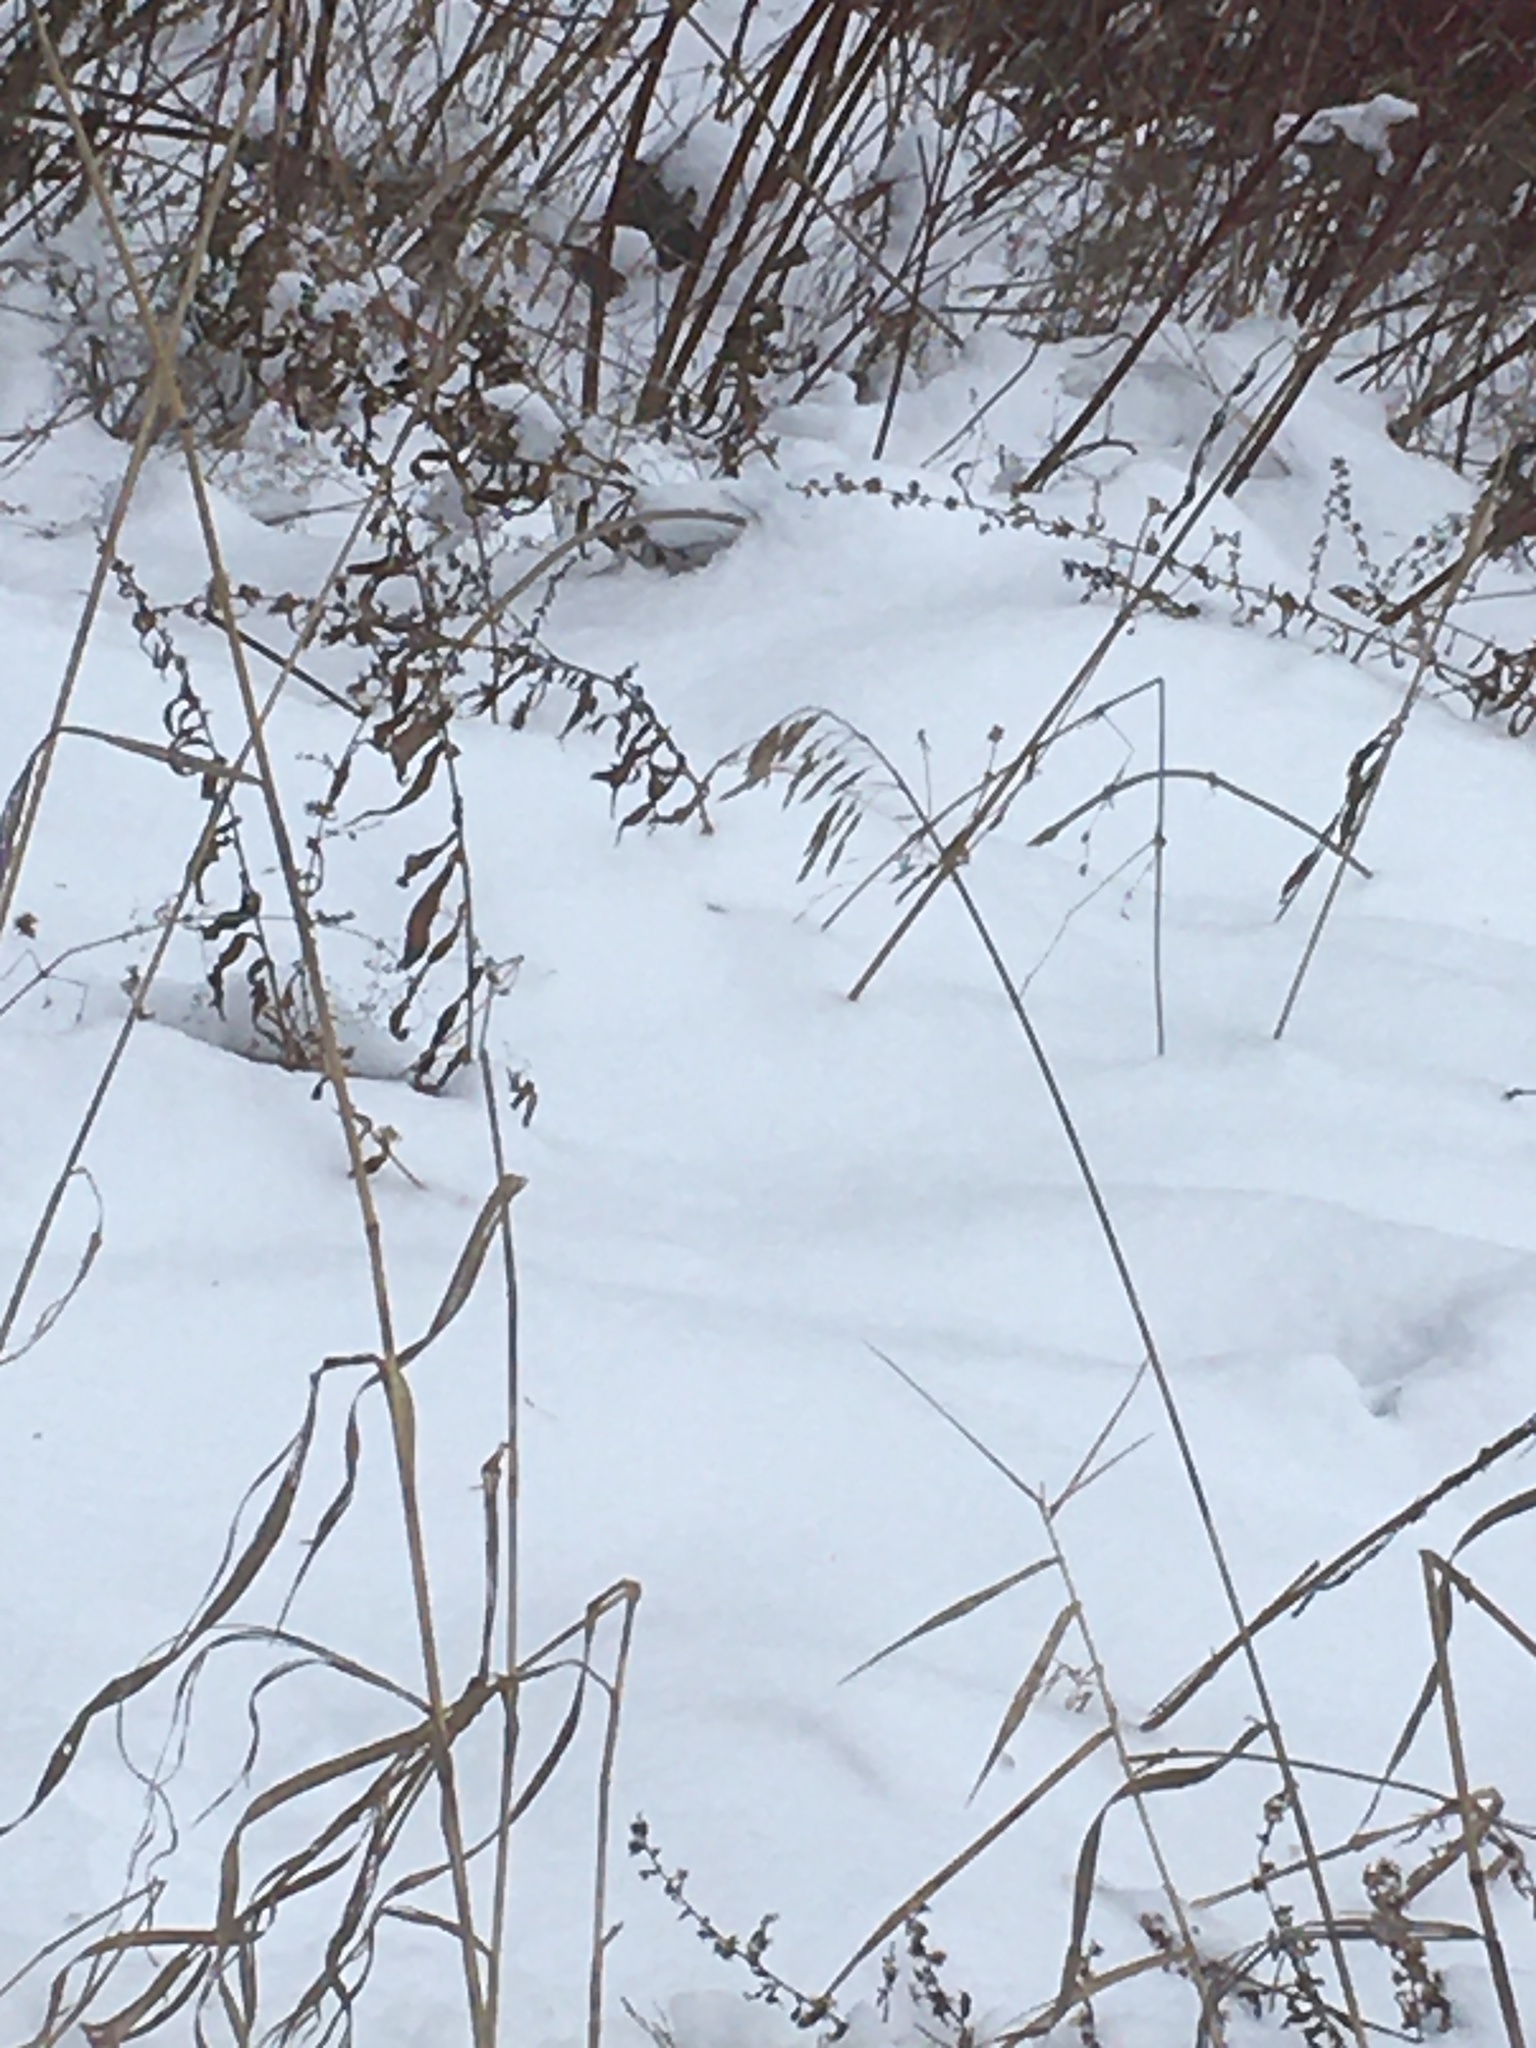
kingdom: Plantae
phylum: Tracheophyta
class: Liliopsida
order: Poales
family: Poaceae
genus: Bromus
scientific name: Bromus inermis
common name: Smooth brome
